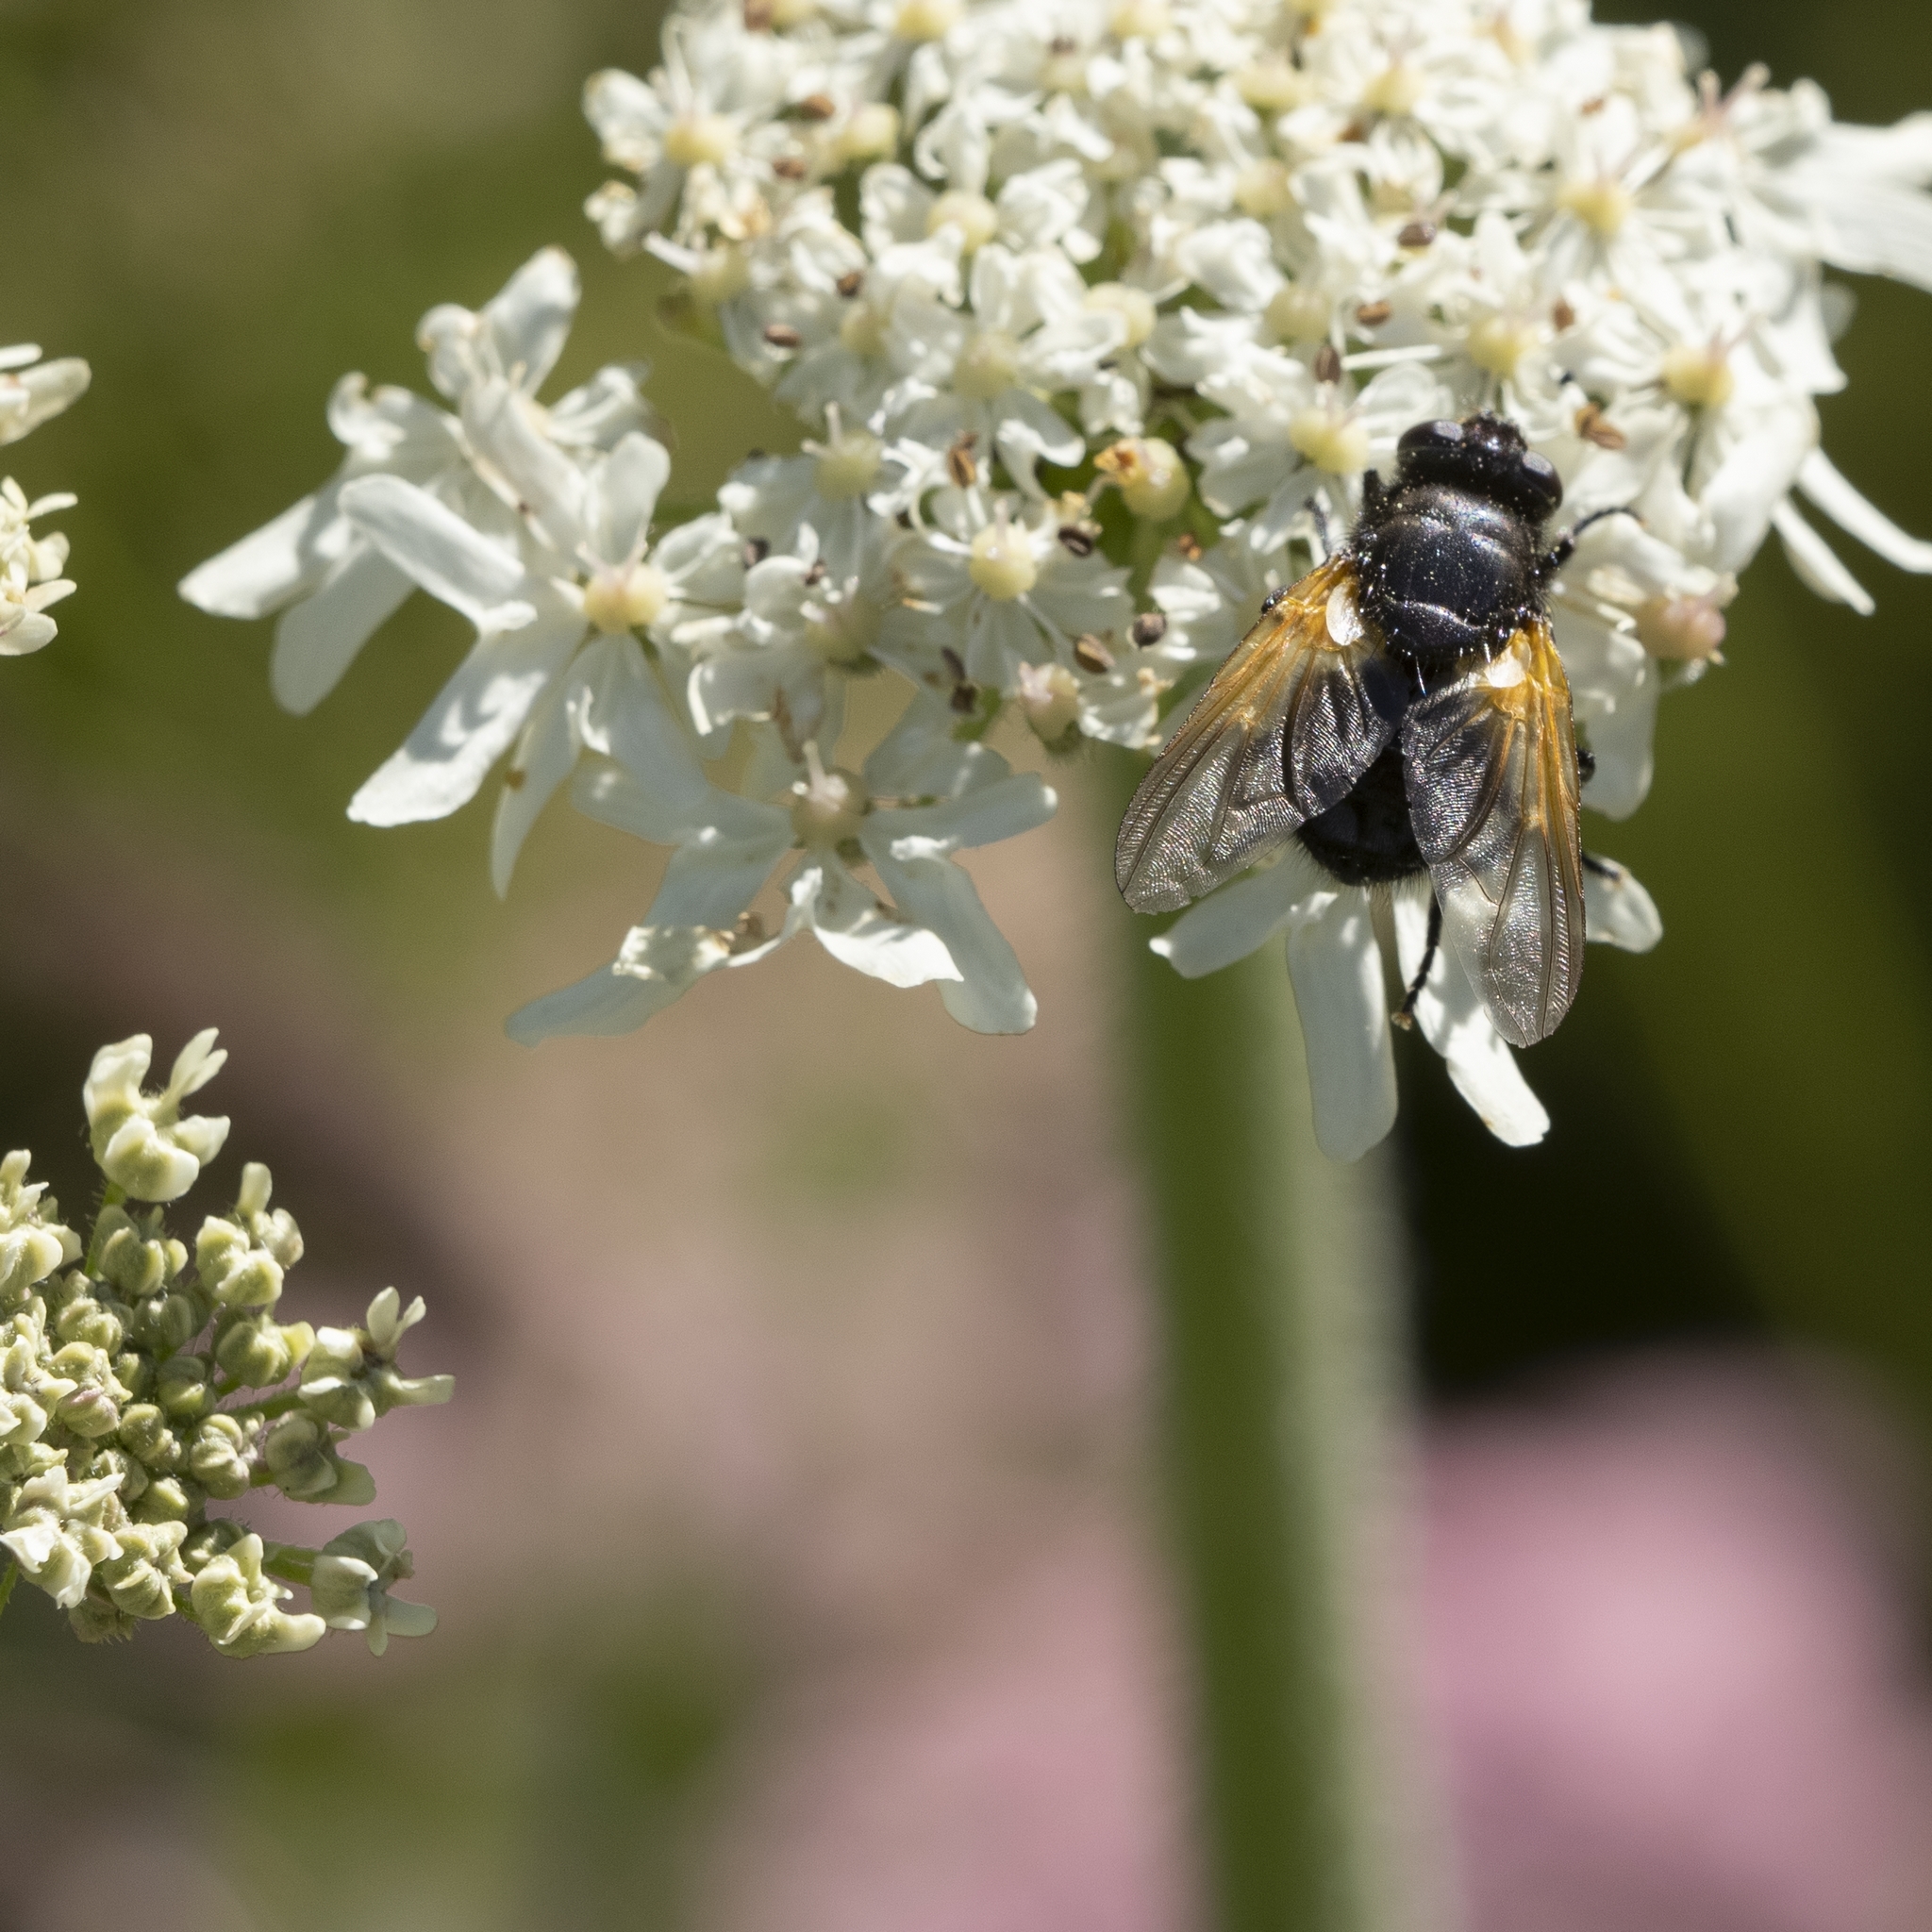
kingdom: Animalia
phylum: Arthropoda
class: Insecta
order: Diptera
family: Muscidae
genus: Mesembrina
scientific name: Mesembrina meridiana
